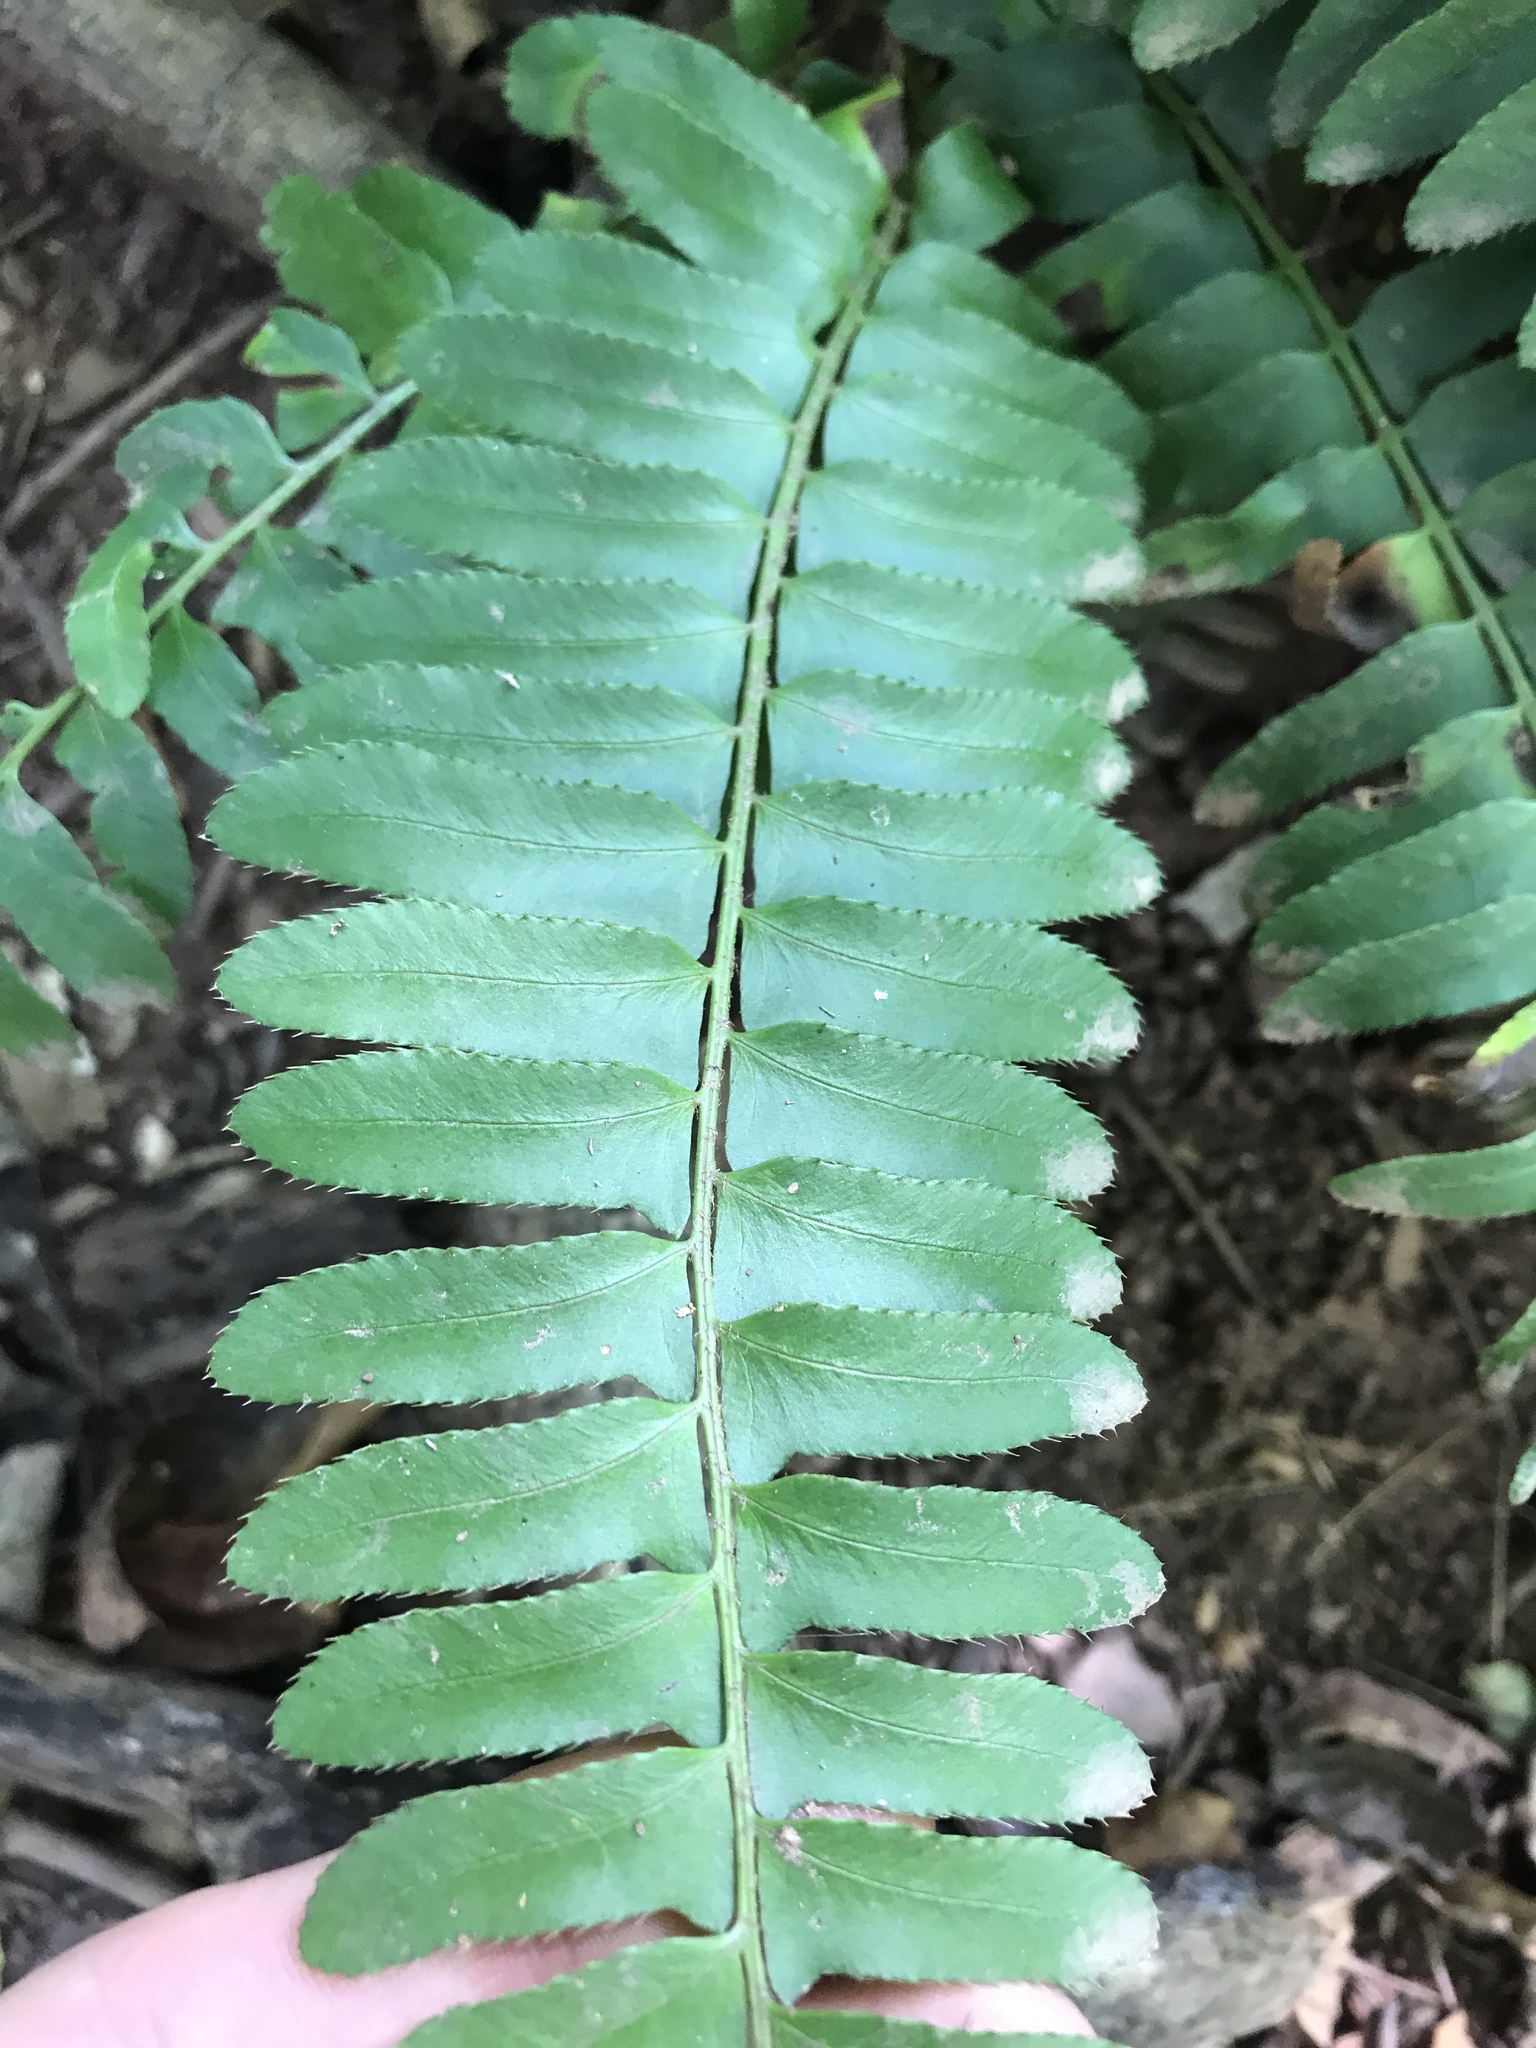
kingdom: Plantae
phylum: Tracheophyta
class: Polypodiopsida
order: Polypodiales
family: Dryopteridaceae
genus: Polystichum
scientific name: Polystichum acrostichoides
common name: Christmas fern
